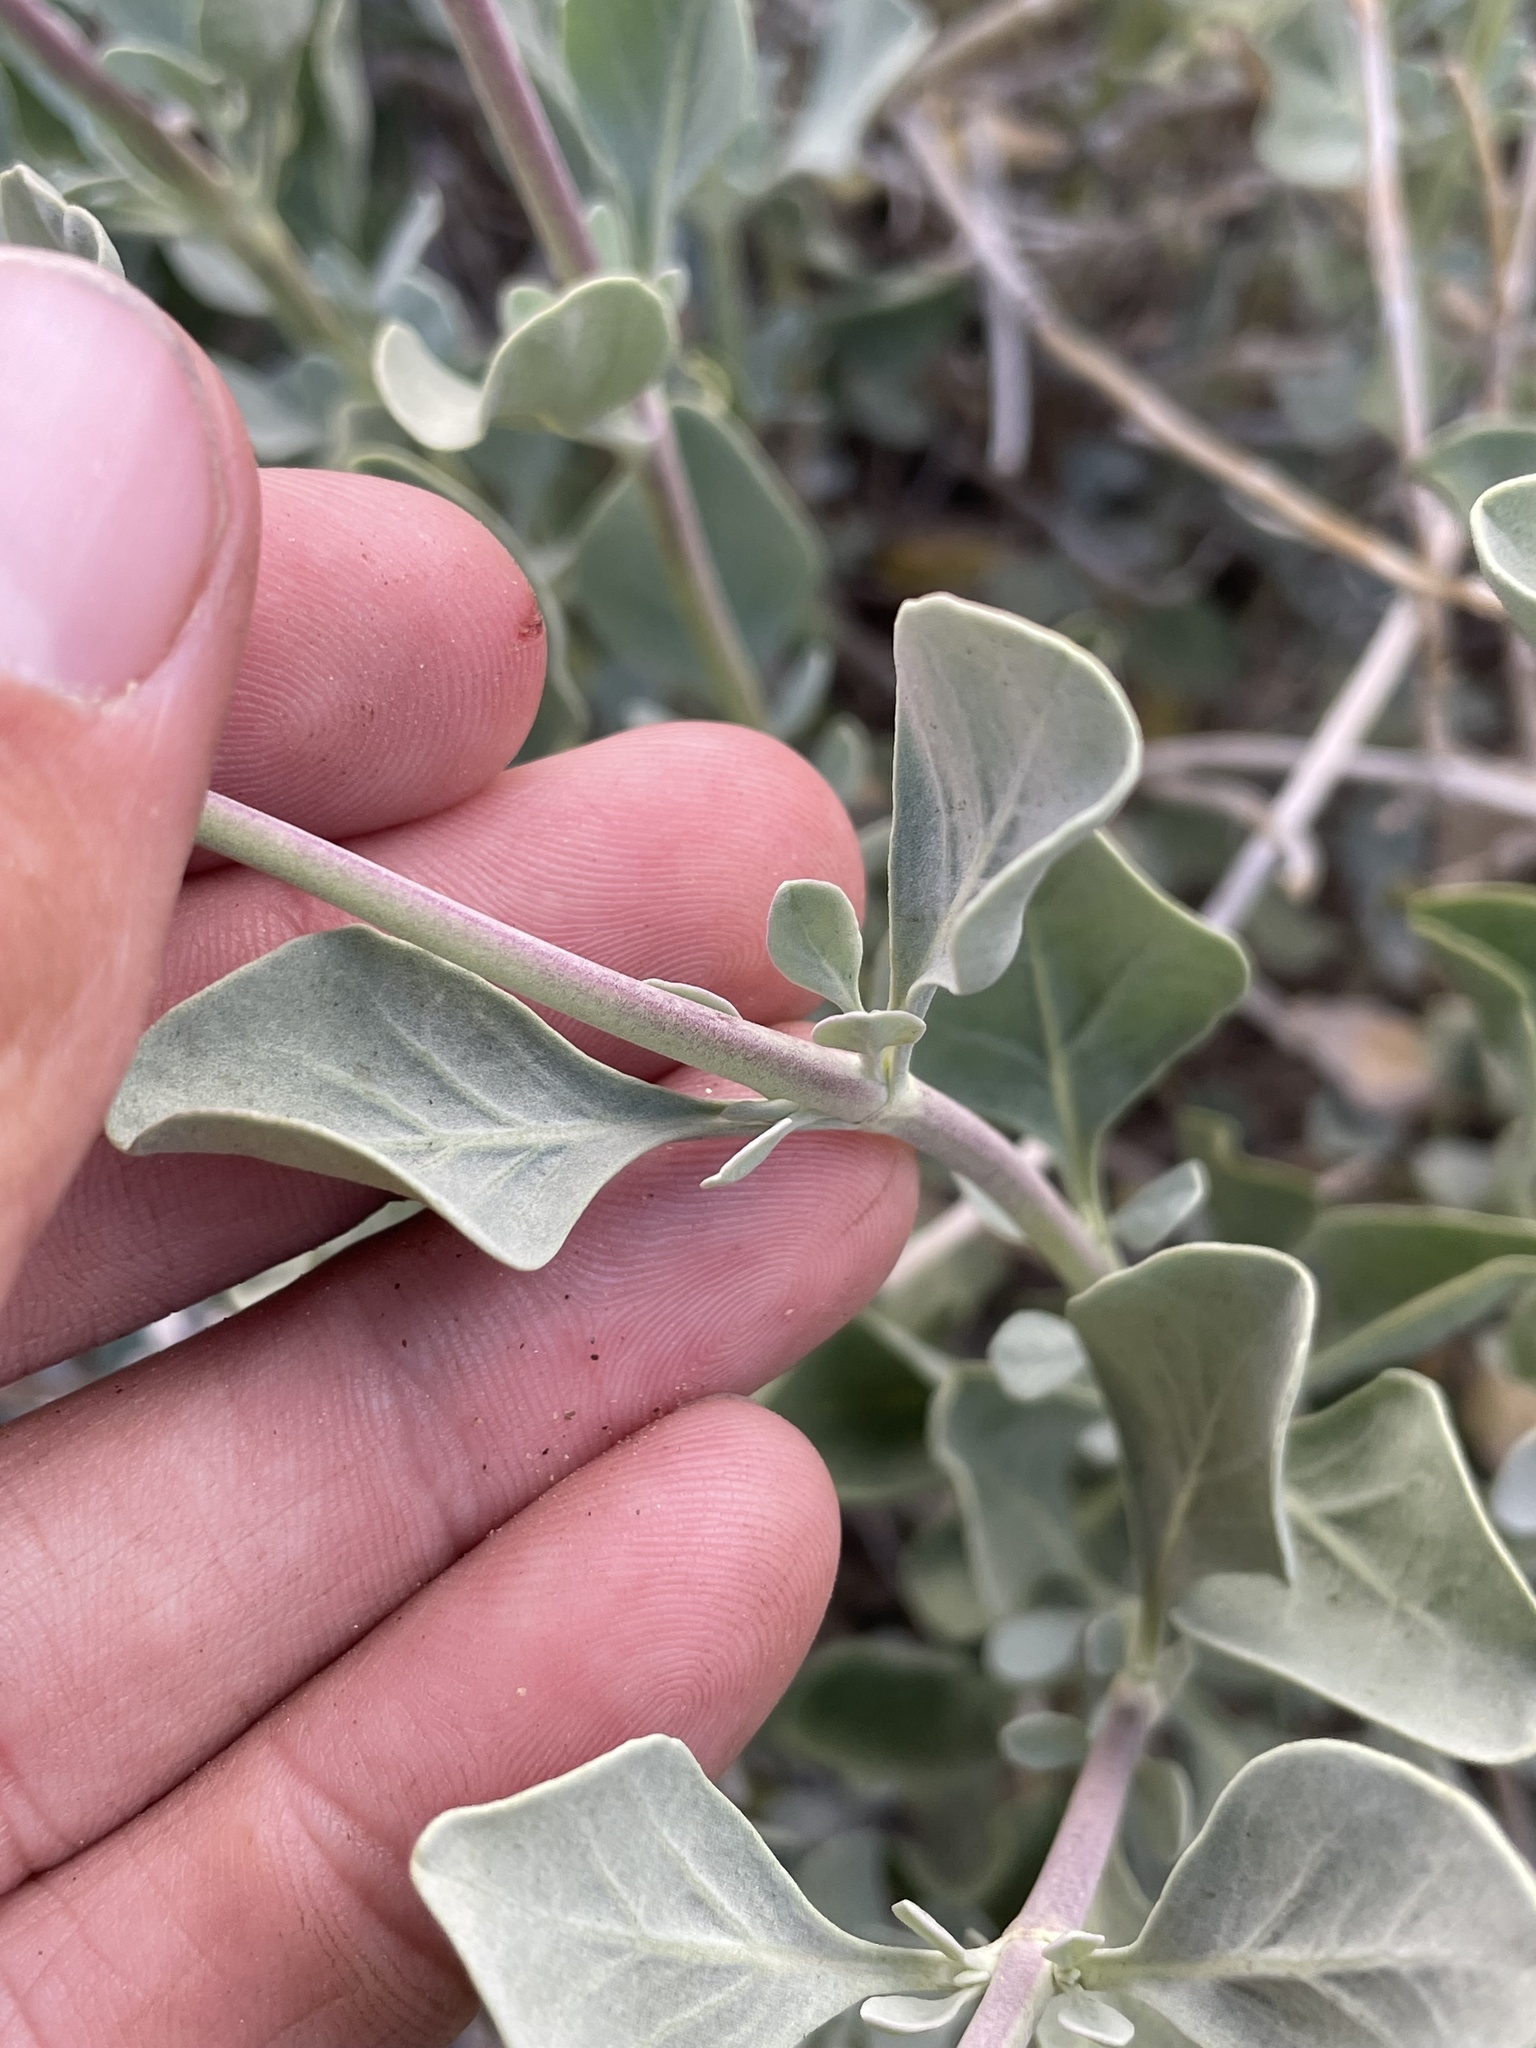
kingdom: Plantae
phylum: Tracheophyta
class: Magnoliopsida
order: Lamiales
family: Lamiaceae
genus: Salvia
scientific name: Salvia pachyphylla
